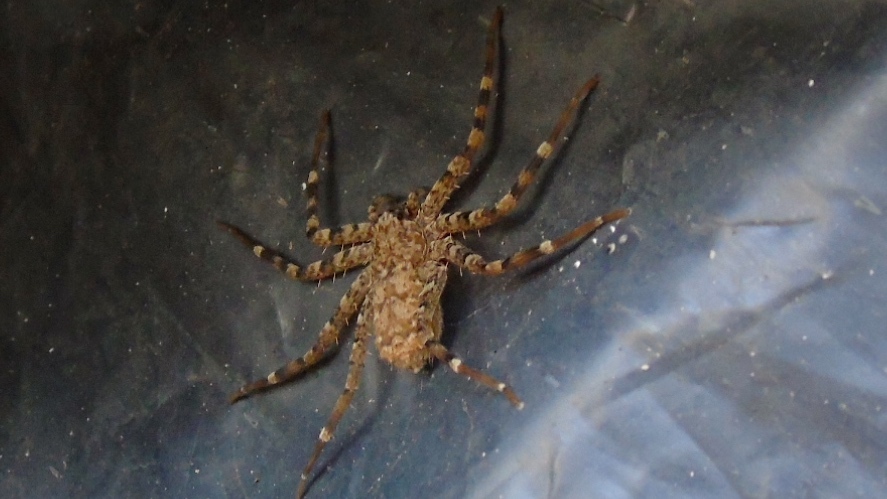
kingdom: Animalia
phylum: Arthropoda
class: Arachnida
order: Araneae
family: Selenopidae
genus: Selenops
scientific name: Selenops
